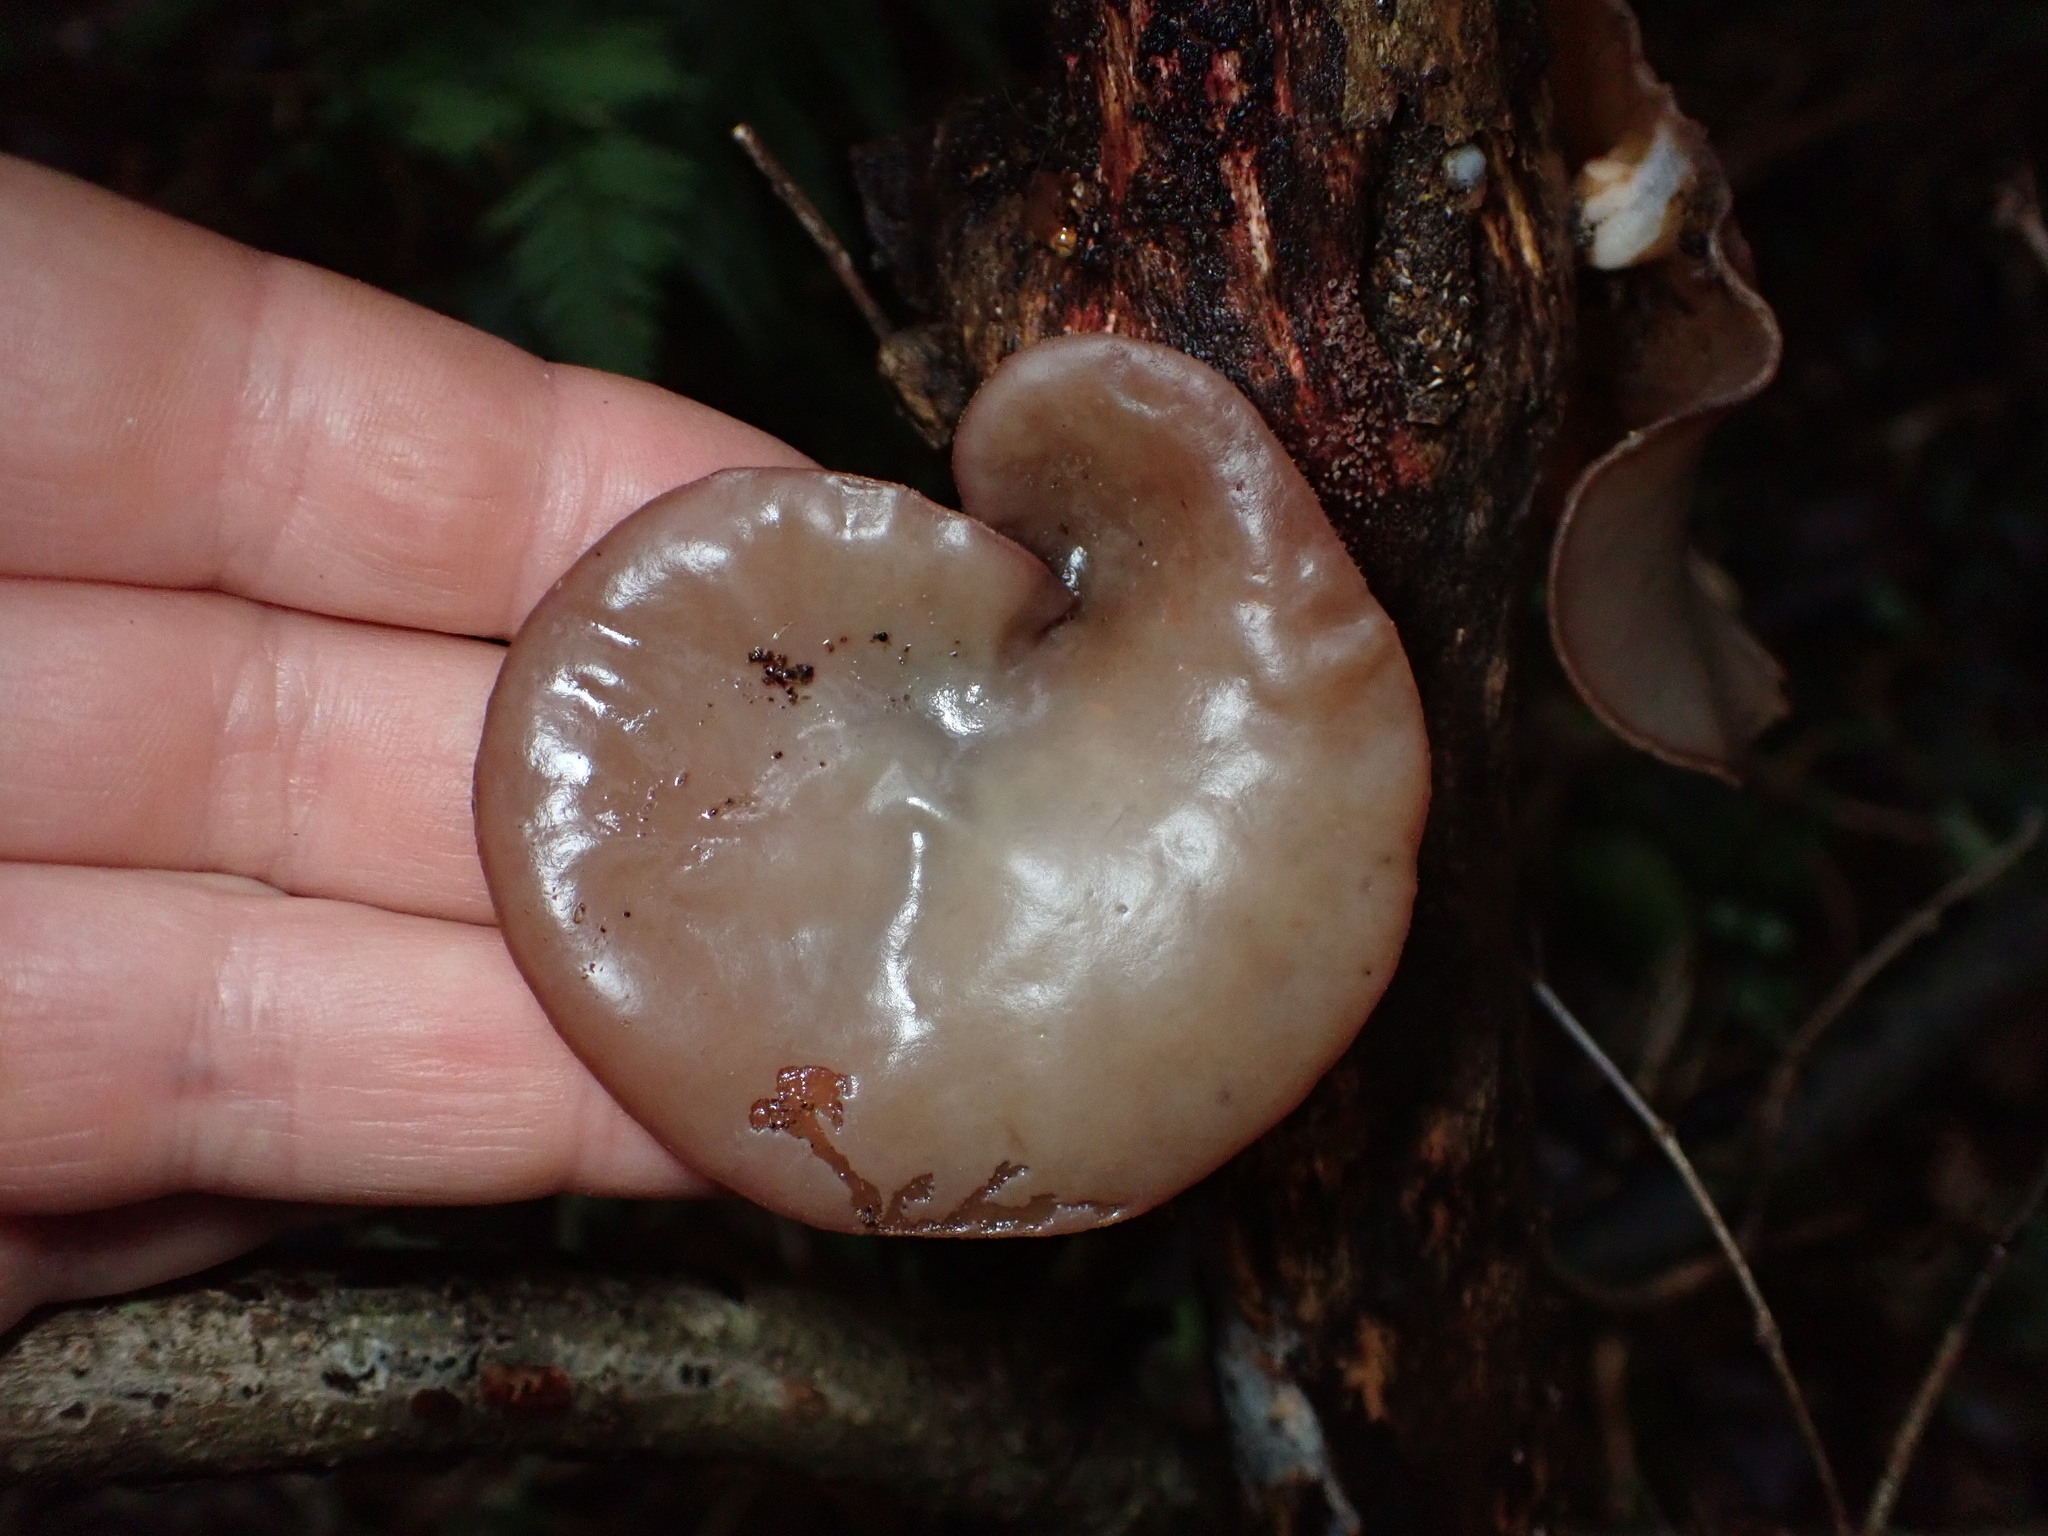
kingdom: Fungi
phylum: Basidiomycota
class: Agaricomycetes
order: Auriculariales
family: Auriculariaceae
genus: Auricularia
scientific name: Auricularia cornea
